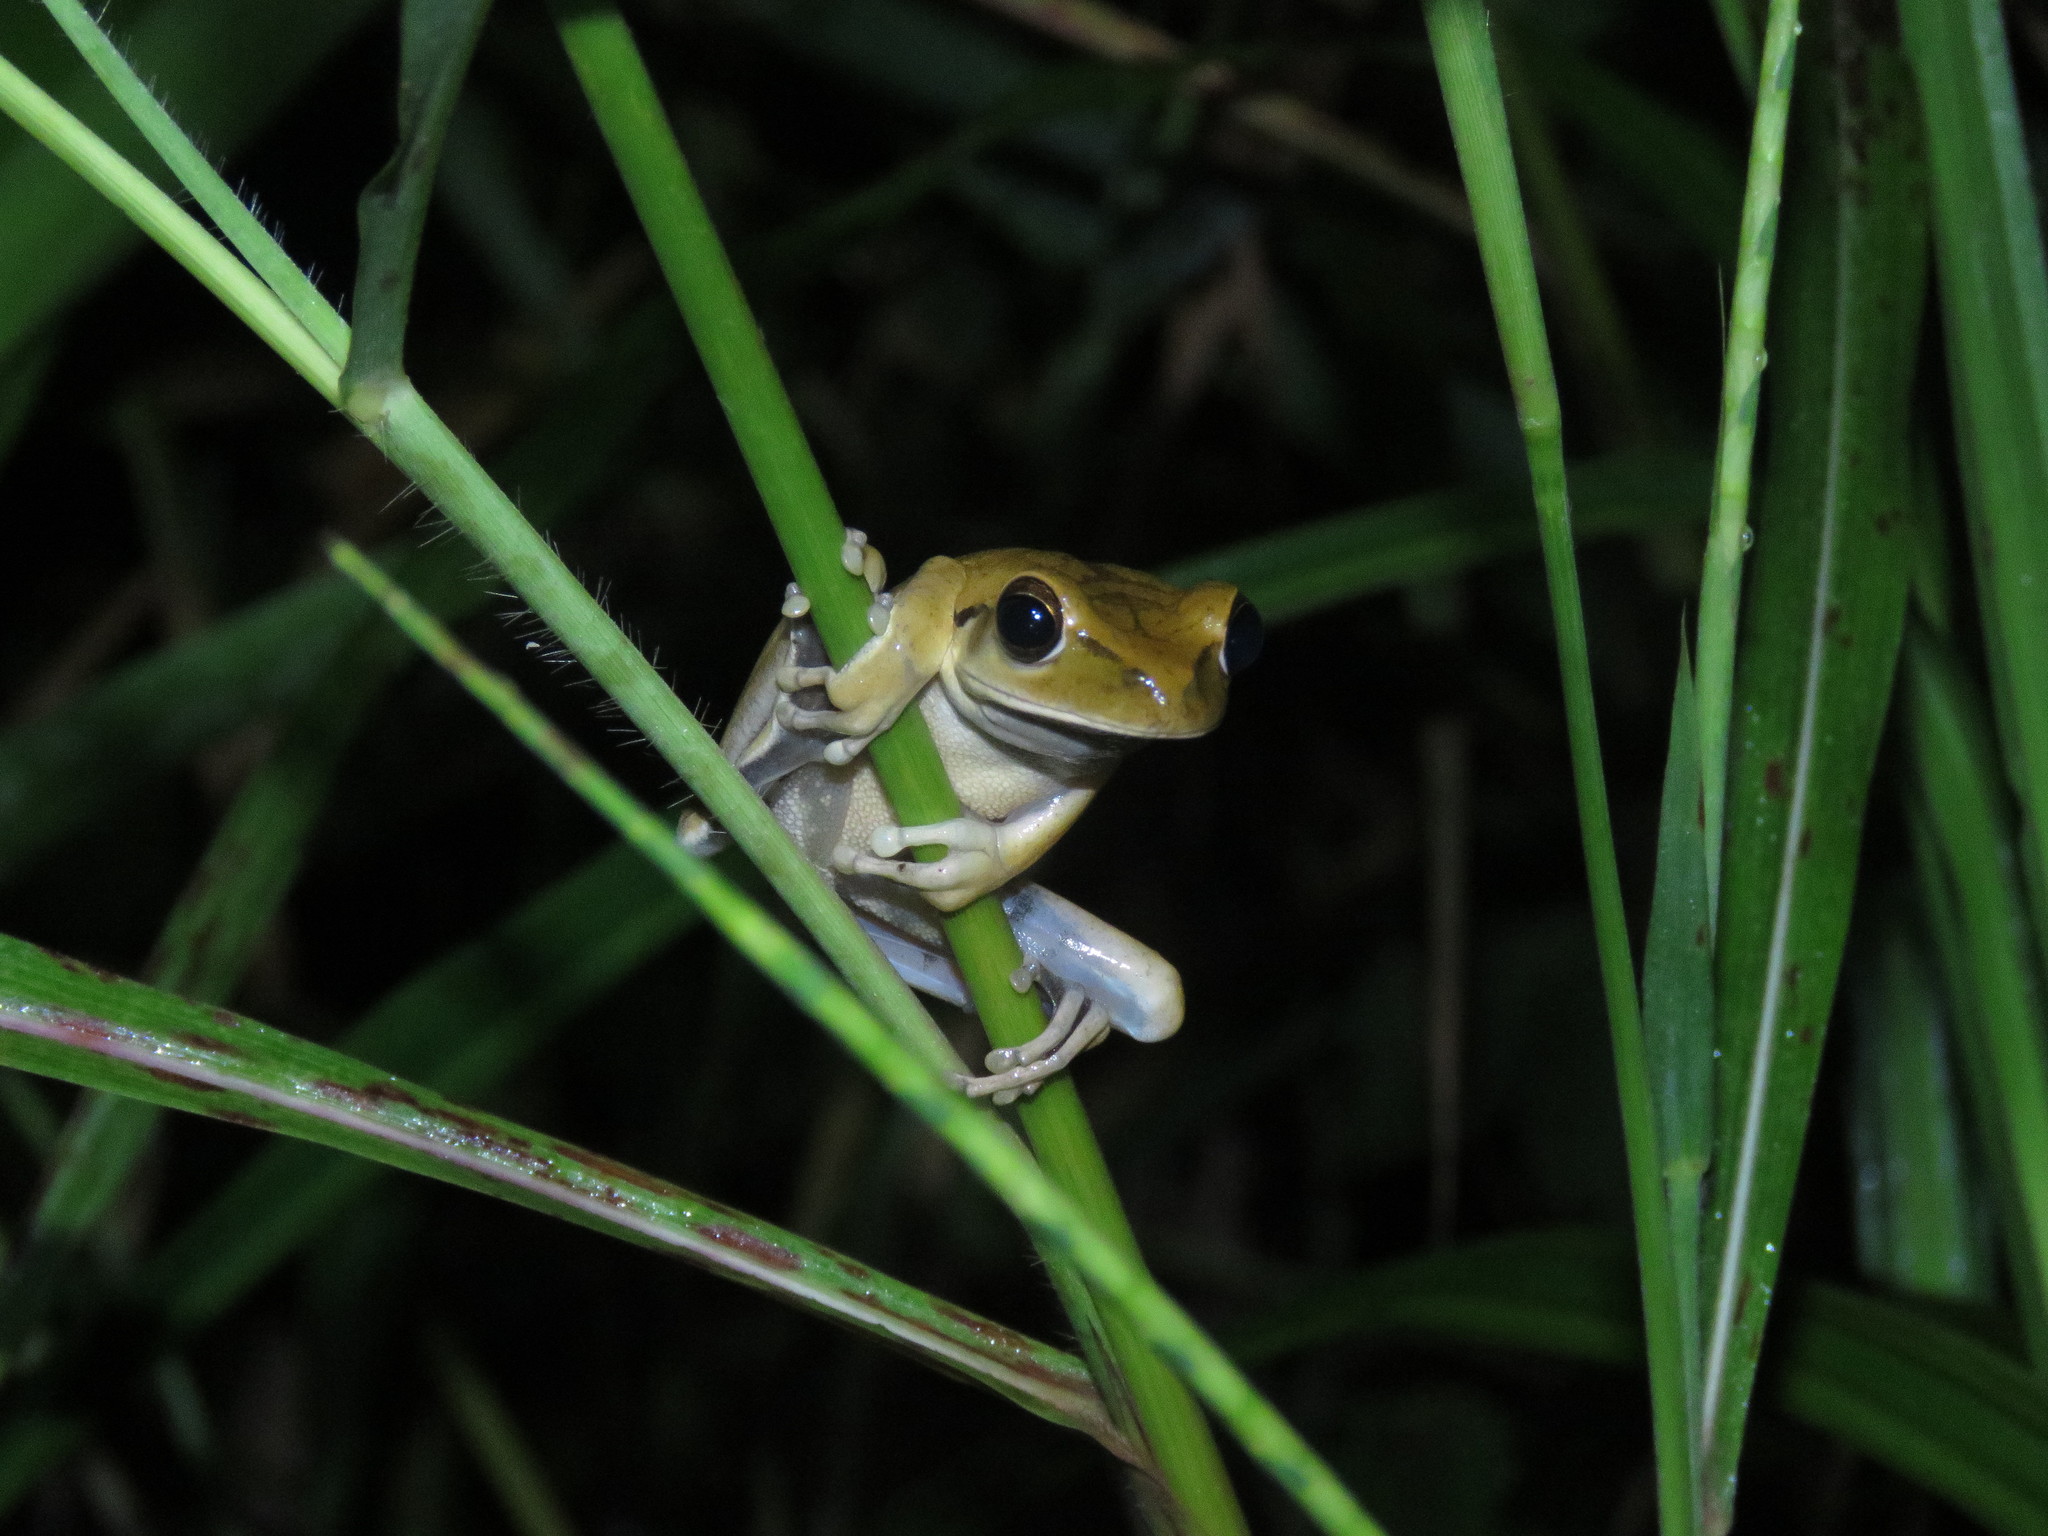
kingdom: Animalia
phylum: Chordata
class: Amphibia
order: Anura
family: Hylidae
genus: Boana
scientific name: Boana raniceps
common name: Chaco treefrog
